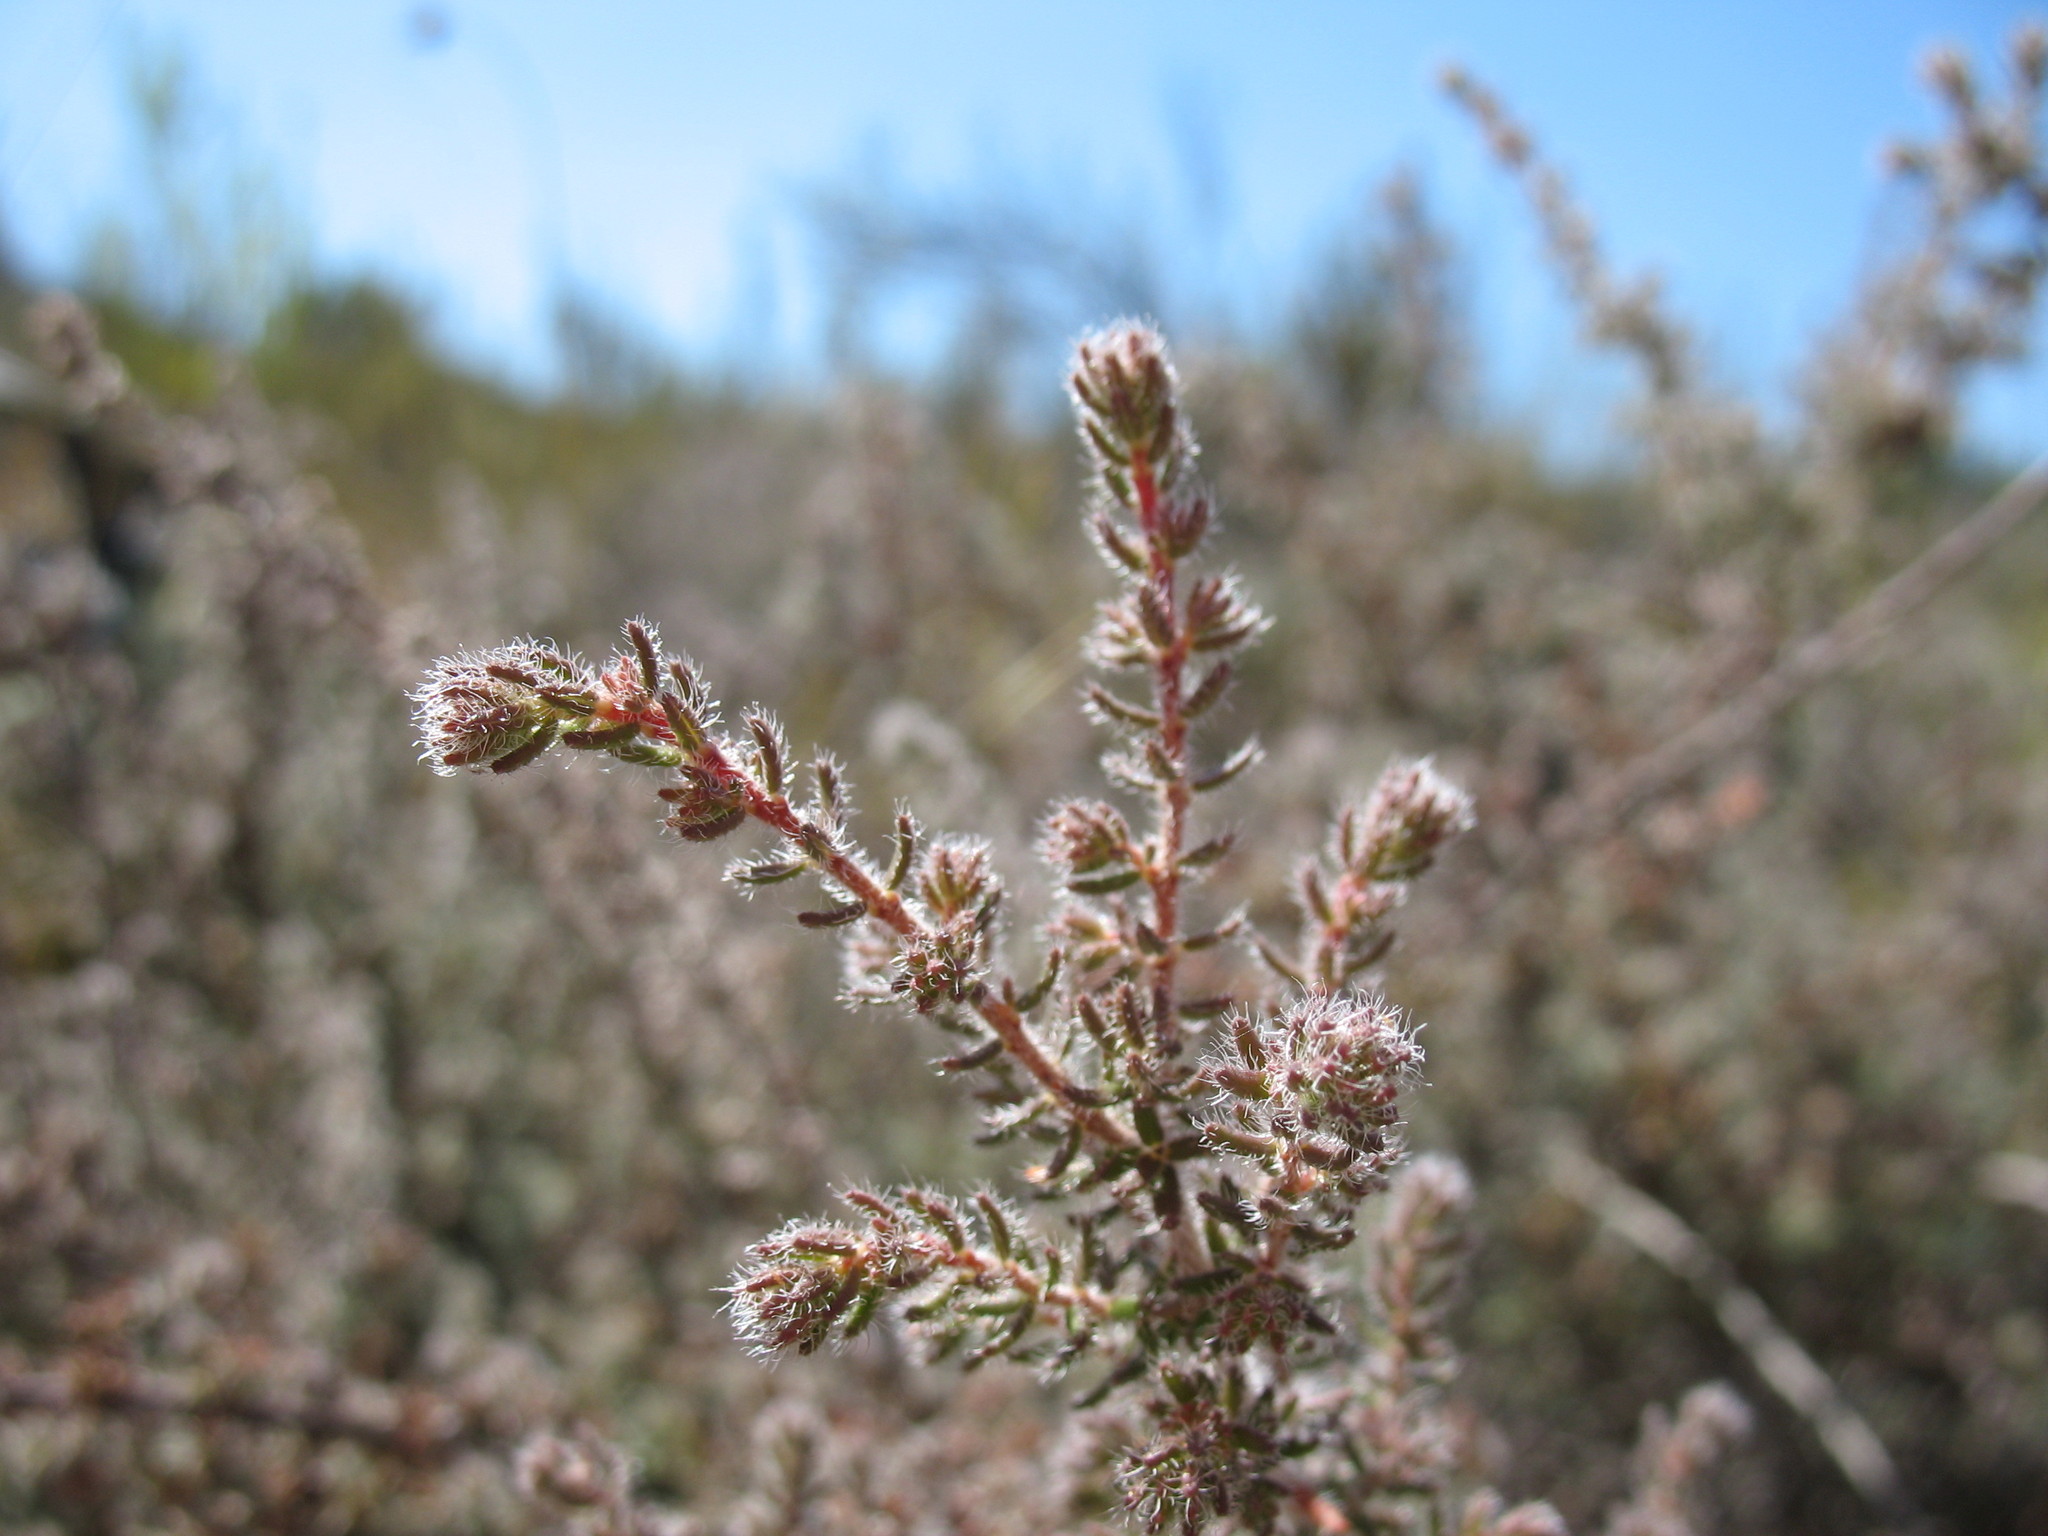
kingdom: Plantae
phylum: Tracheophyta
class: Magnoliopsida
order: Ericales
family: Ericaceae
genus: Erica
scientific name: Erica totta
